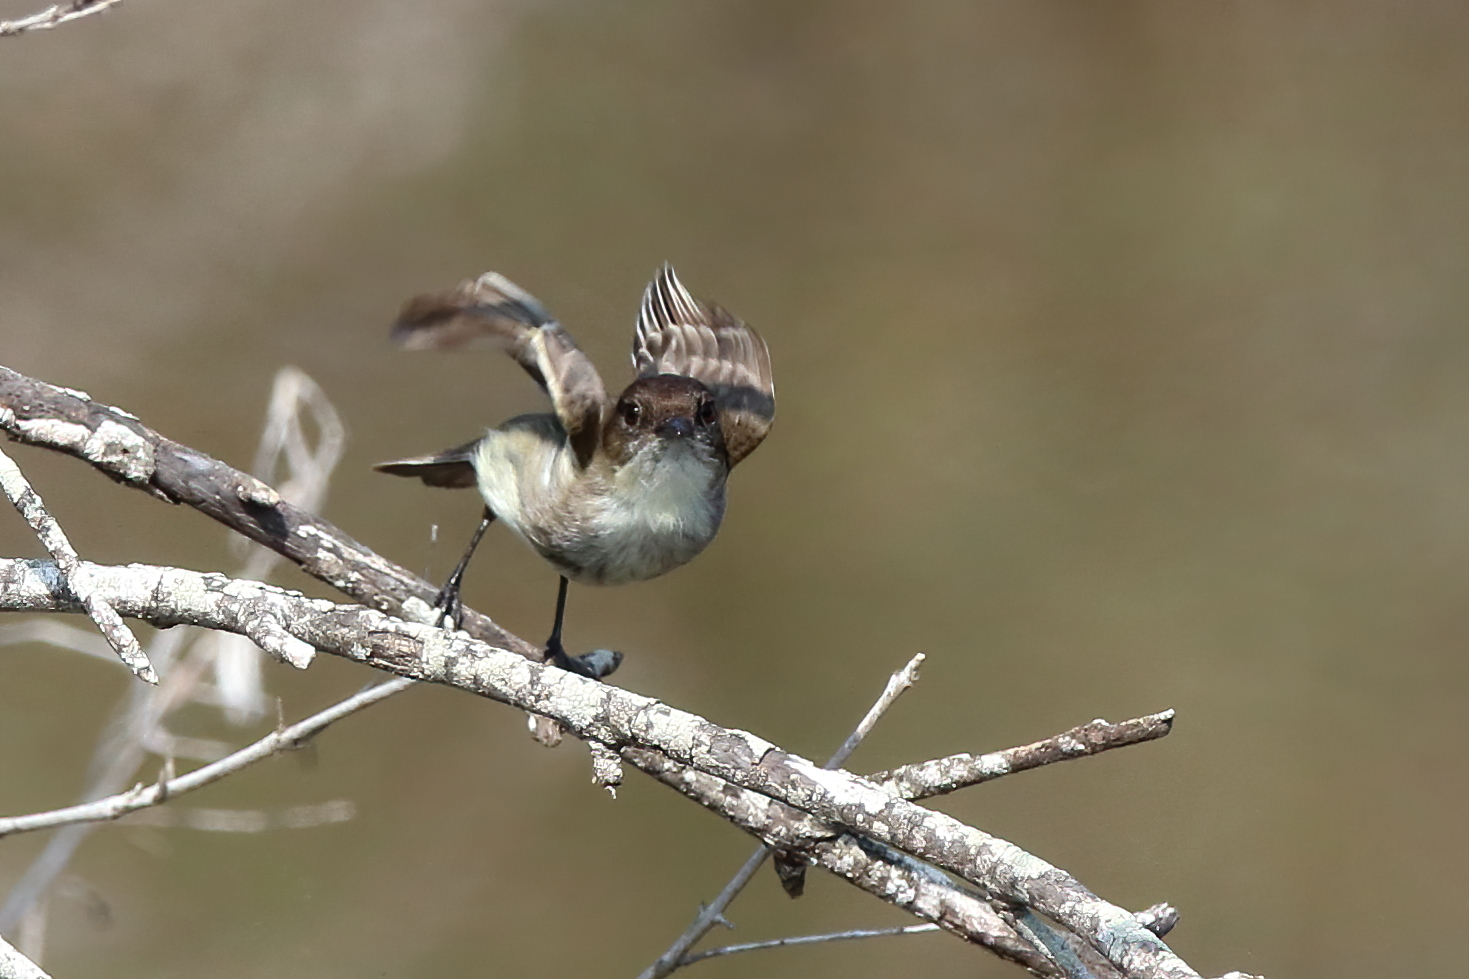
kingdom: Animalia
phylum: Chordata
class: Aves
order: Passeriformes
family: Tyrannidae
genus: Sayornis
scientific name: Sayornis phoebe
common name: Eastern phoebe
